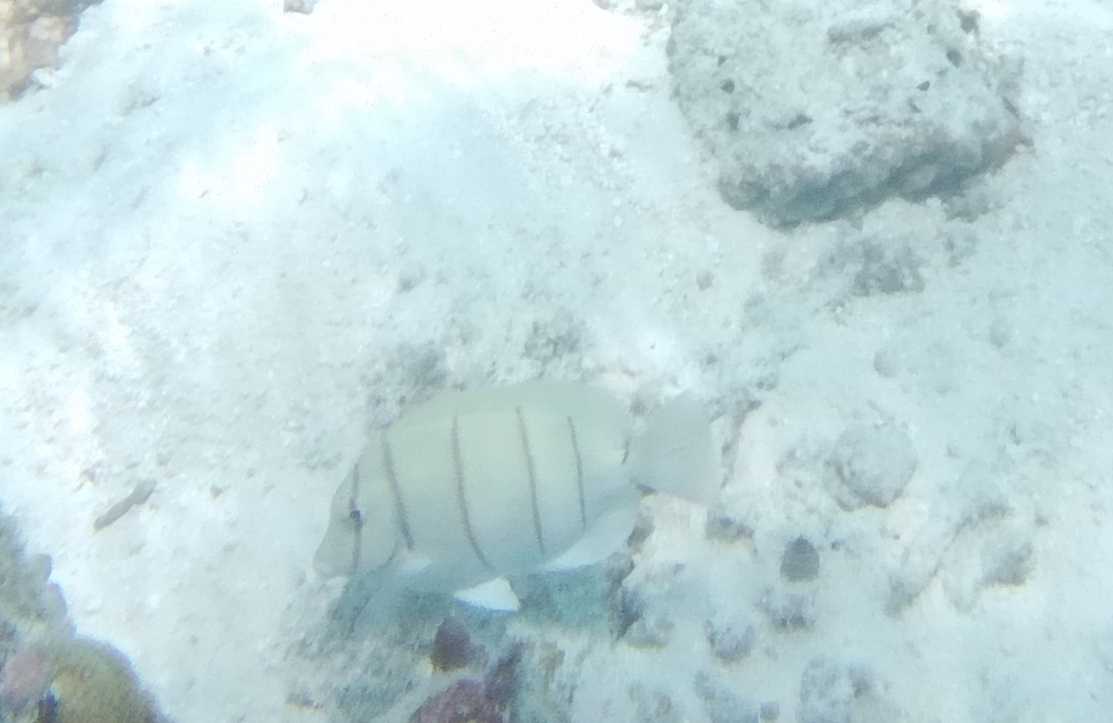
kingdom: Animalia
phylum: Chordata
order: Perciformes
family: Acanthuridae
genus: Acanthurus
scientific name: Acanthurus triostegus
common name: Convict surgeonfish
